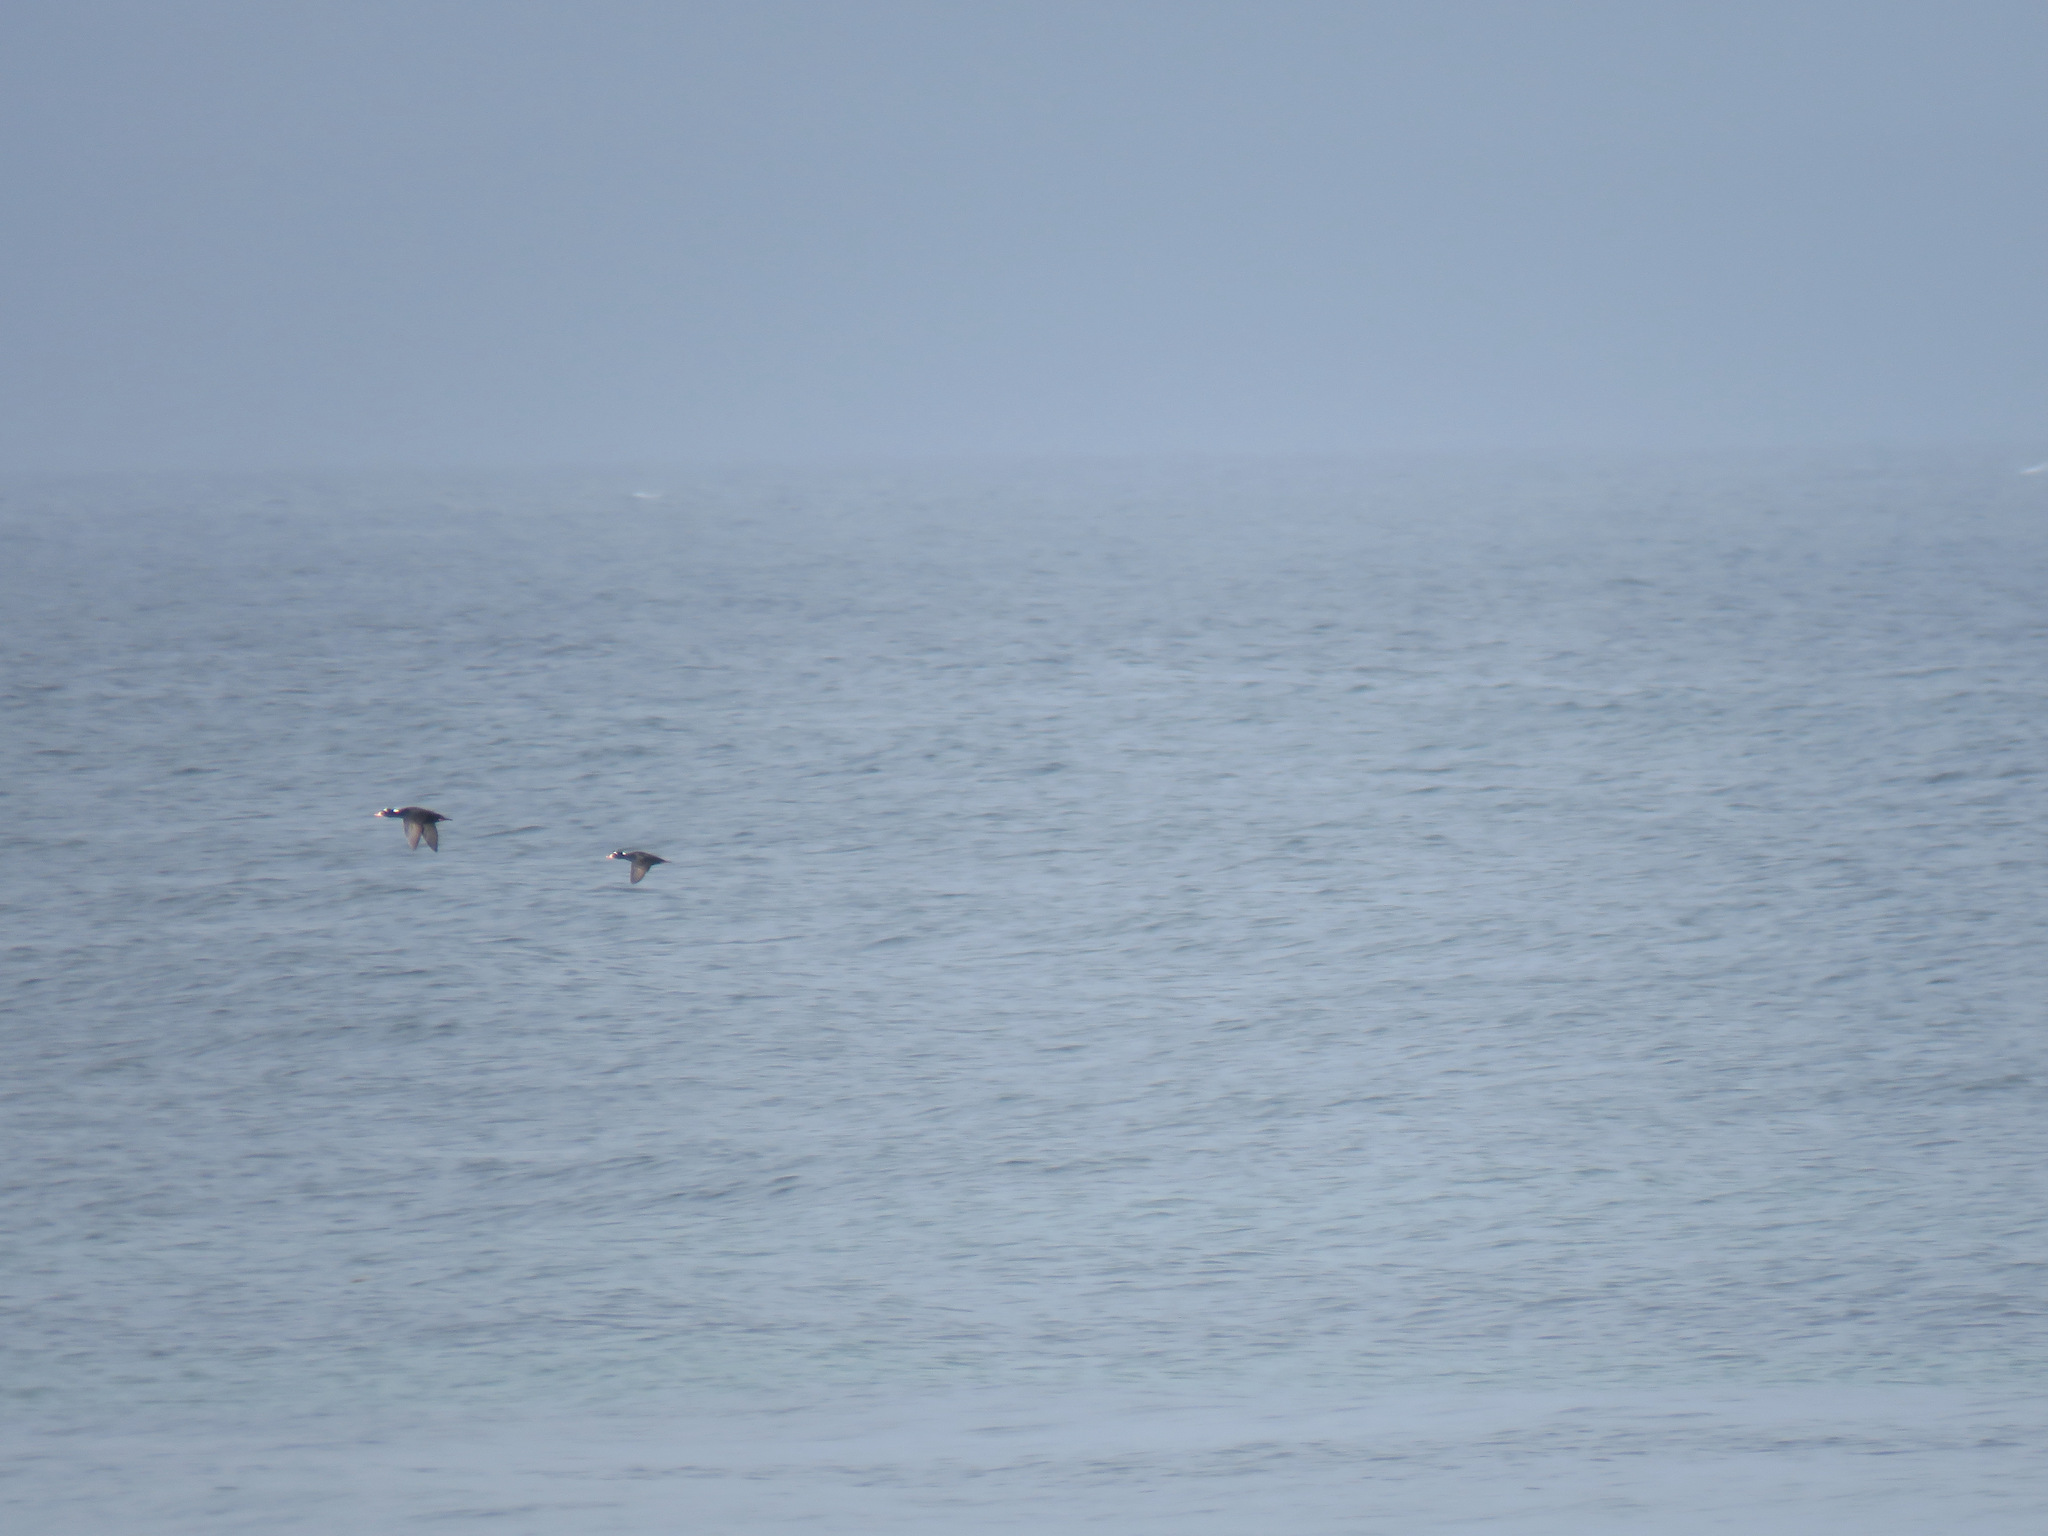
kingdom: Animalia
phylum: Chordata
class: Aves
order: Anseriformes
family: Anatidae
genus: Melanitta
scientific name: Melanitta perspicillata
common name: Surf scoter
